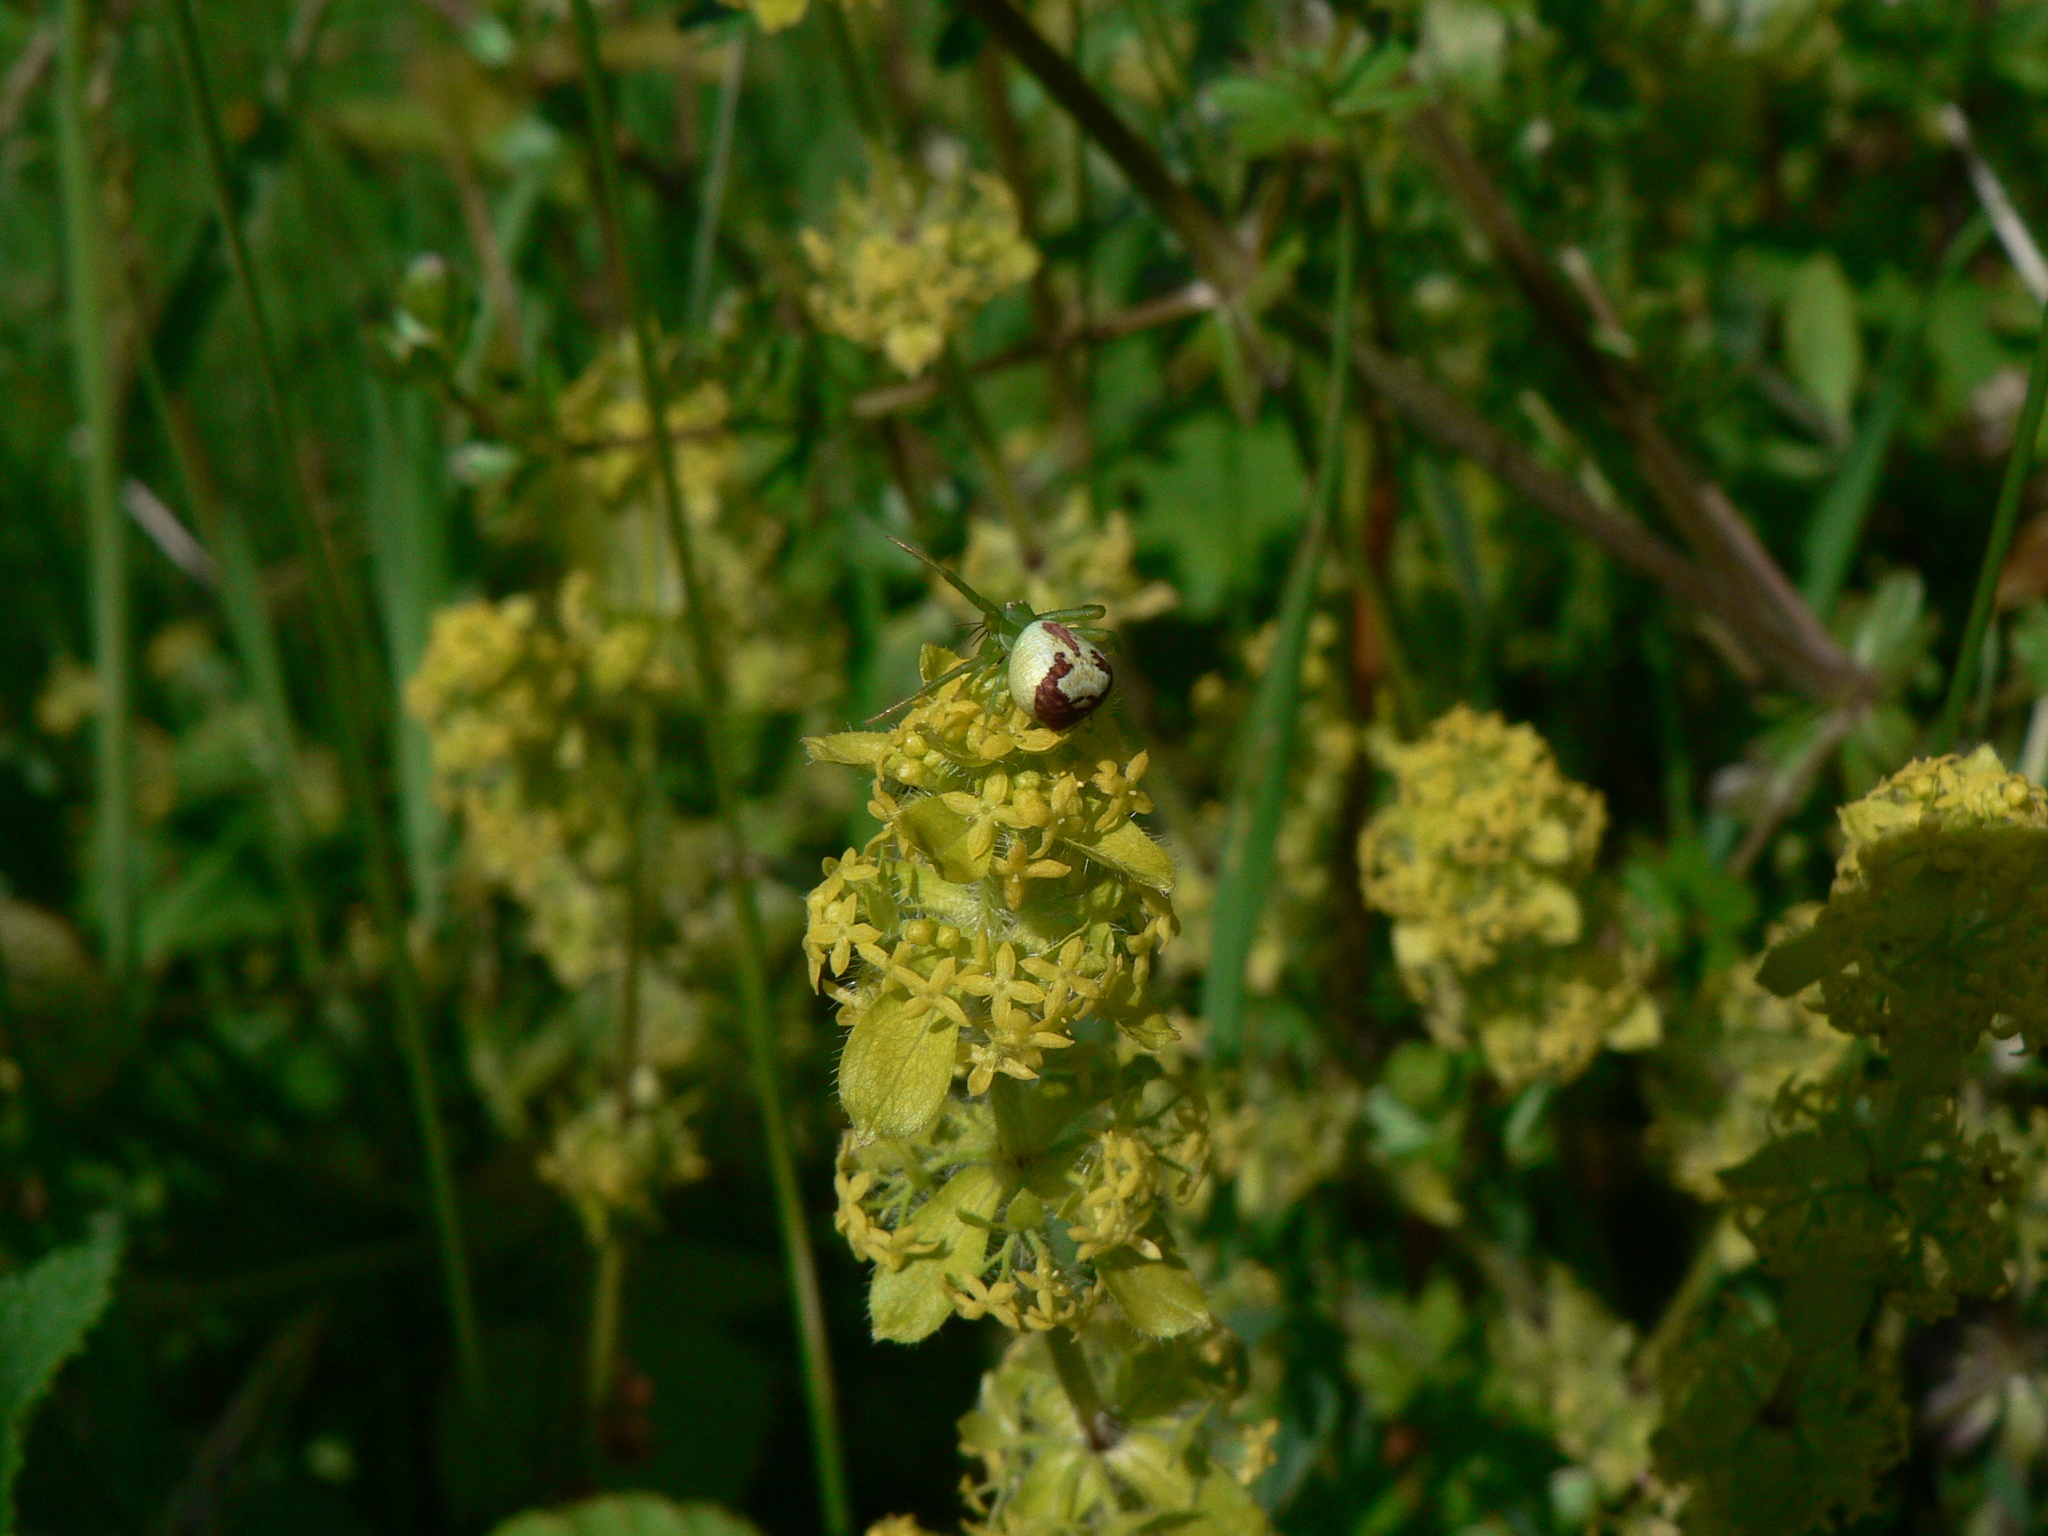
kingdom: Animalia
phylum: Arthropoda
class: Arachnida
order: Araneae
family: Thomisidae
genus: Ebrechtella
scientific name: Ebrechtella tricuspidata
